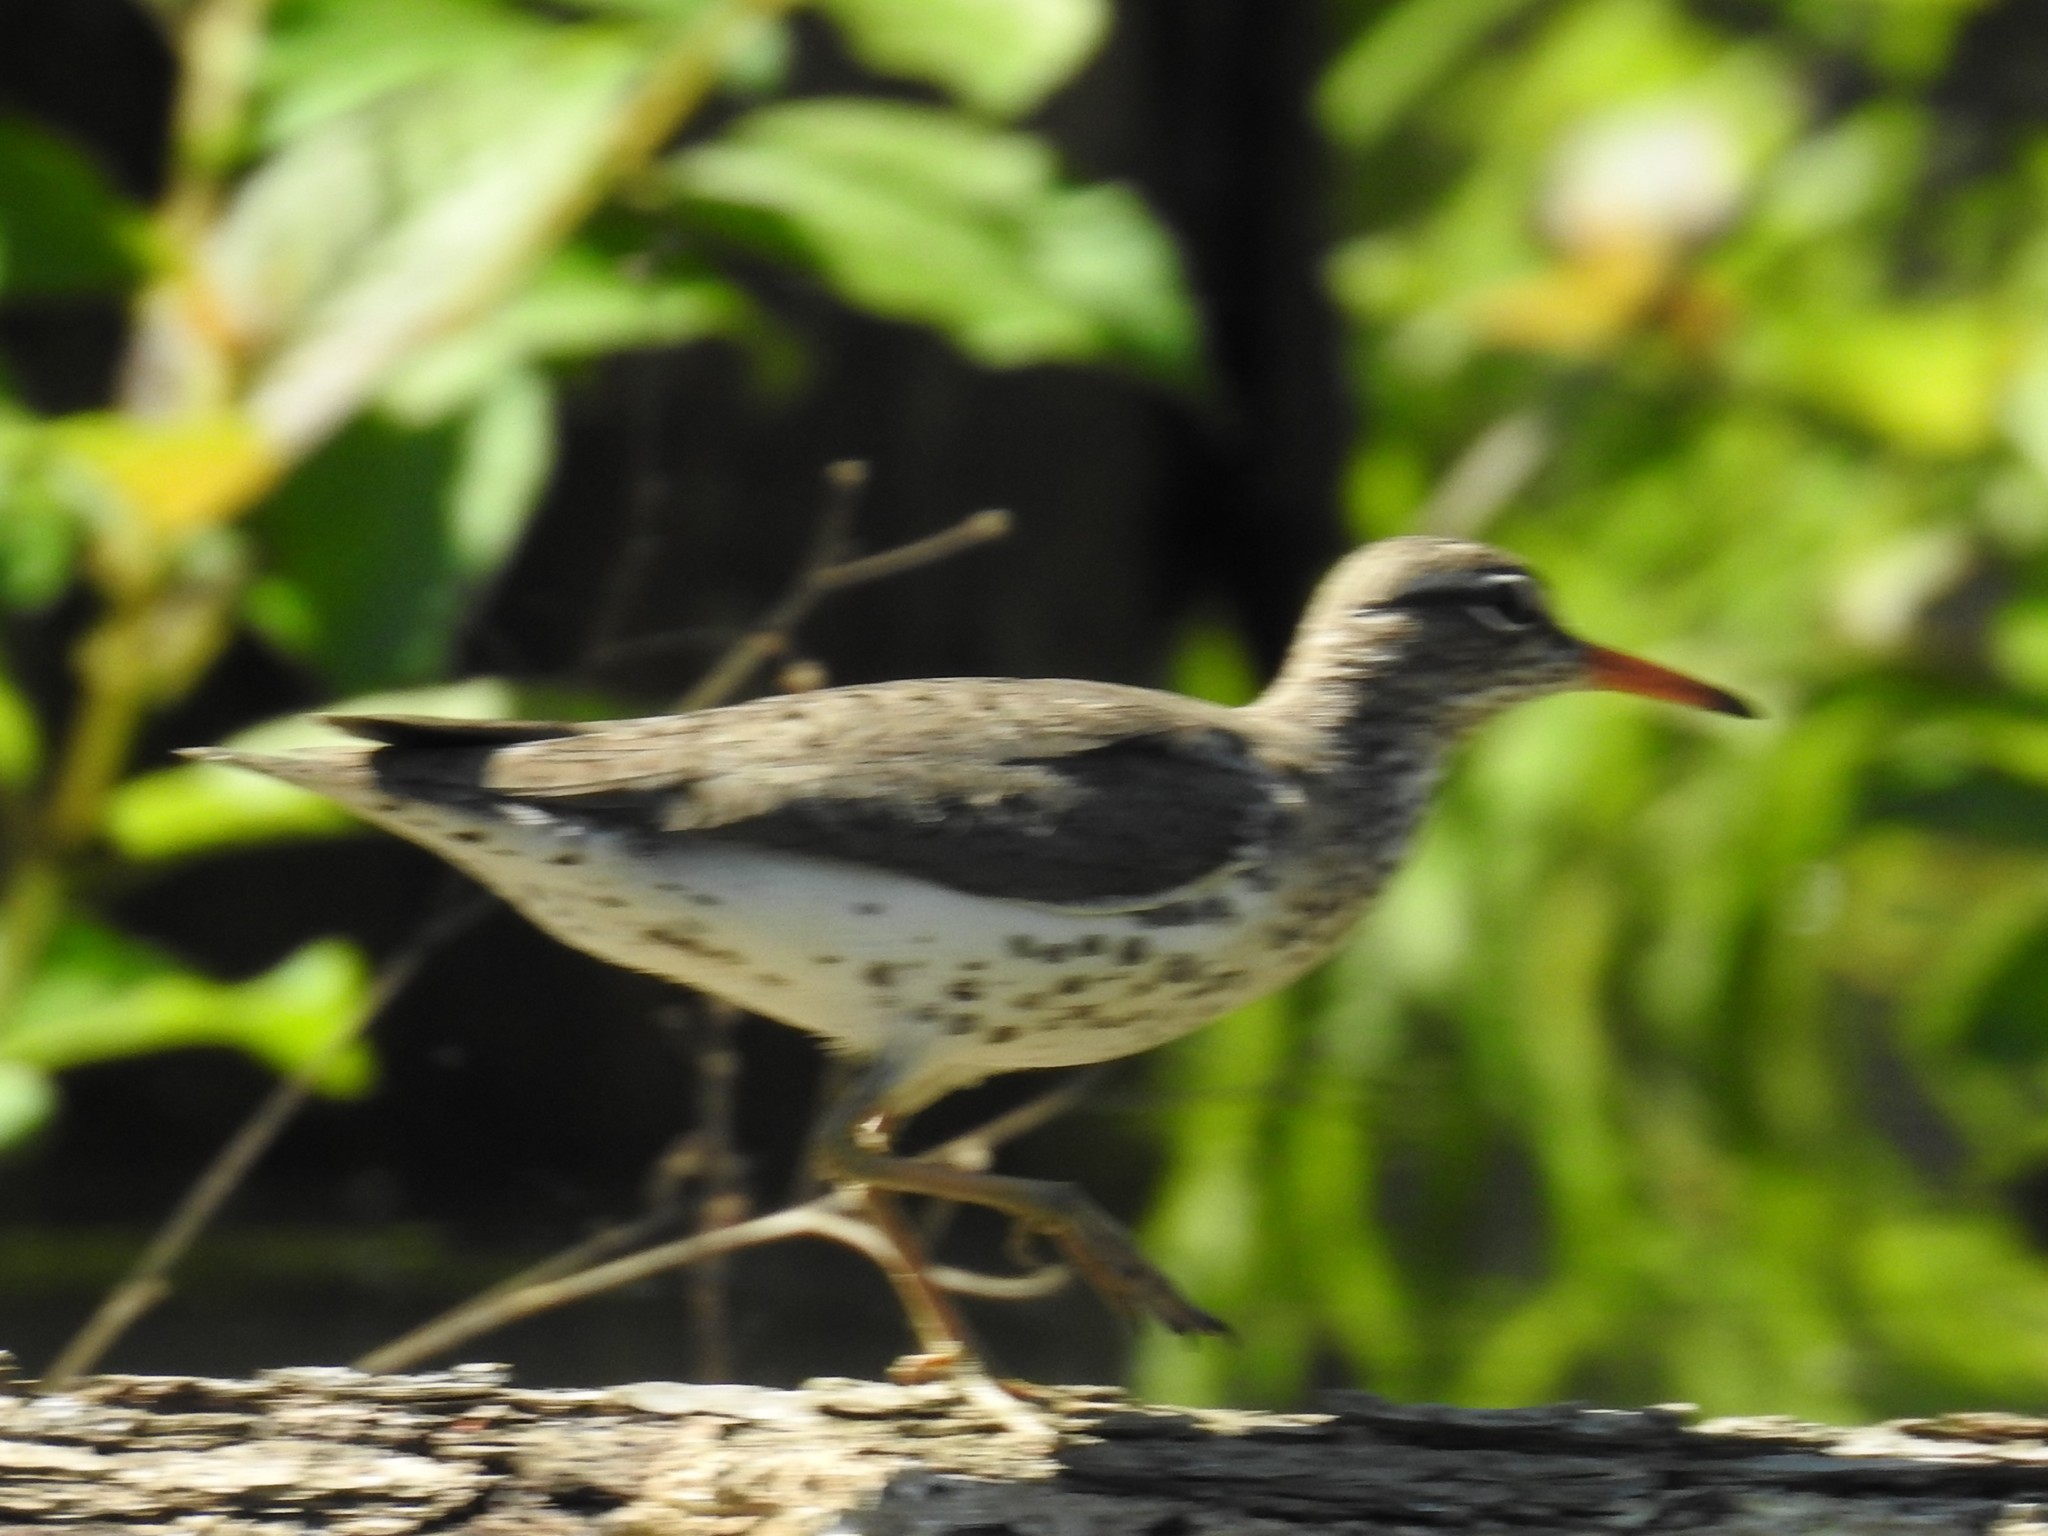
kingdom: Animalia
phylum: Chordata
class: Aves
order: Charadriiformes
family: Scolopacidae
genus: Actitis
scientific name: Actitis macularius
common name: Spotted sandpiper
